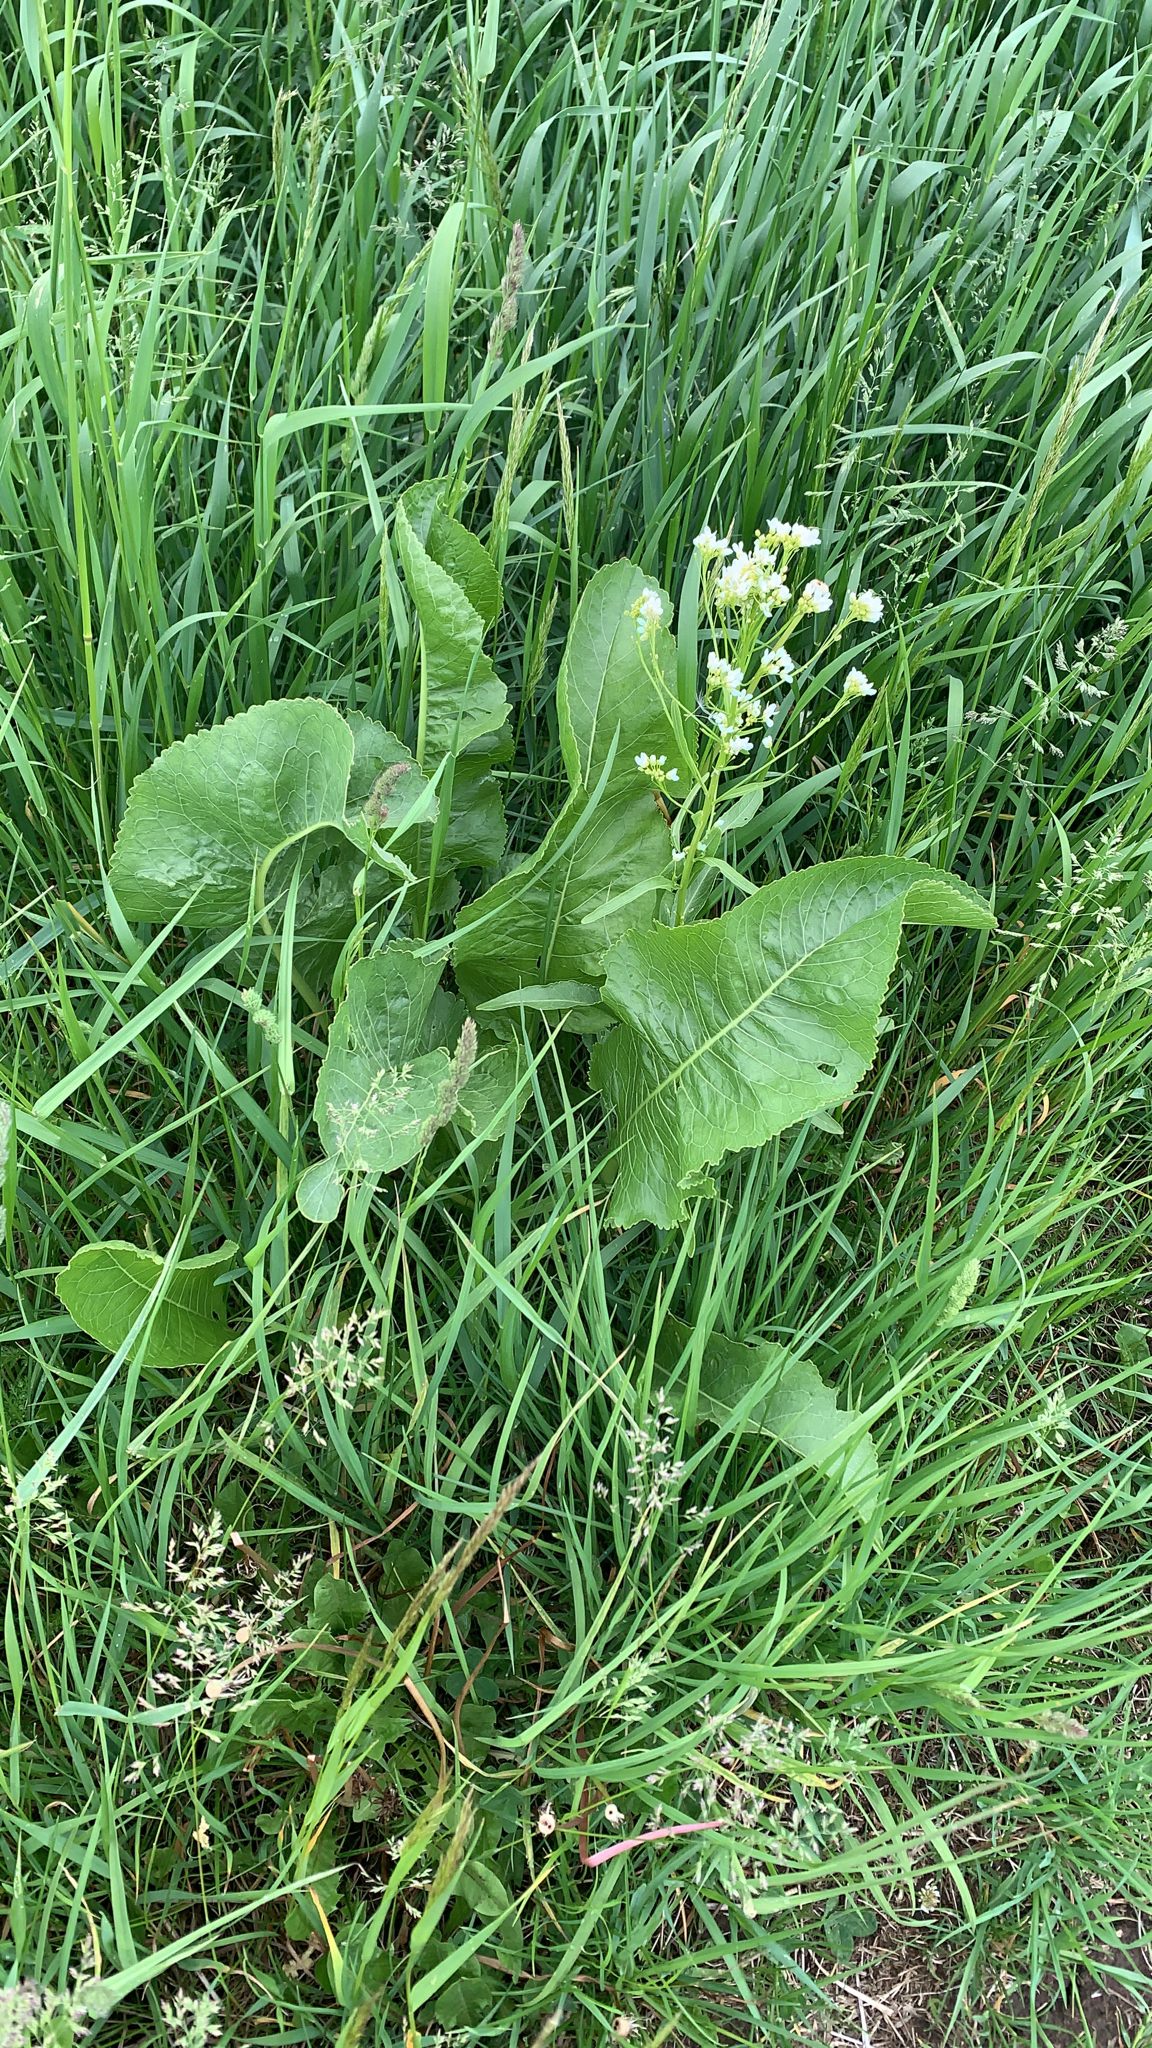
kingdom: Plantae
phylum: Tracheophyta
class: Magnoliopsida
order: Brassicales
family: Brassicaceae
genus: Armoracia
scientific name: Armoracia rusticana
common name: Horseradish
